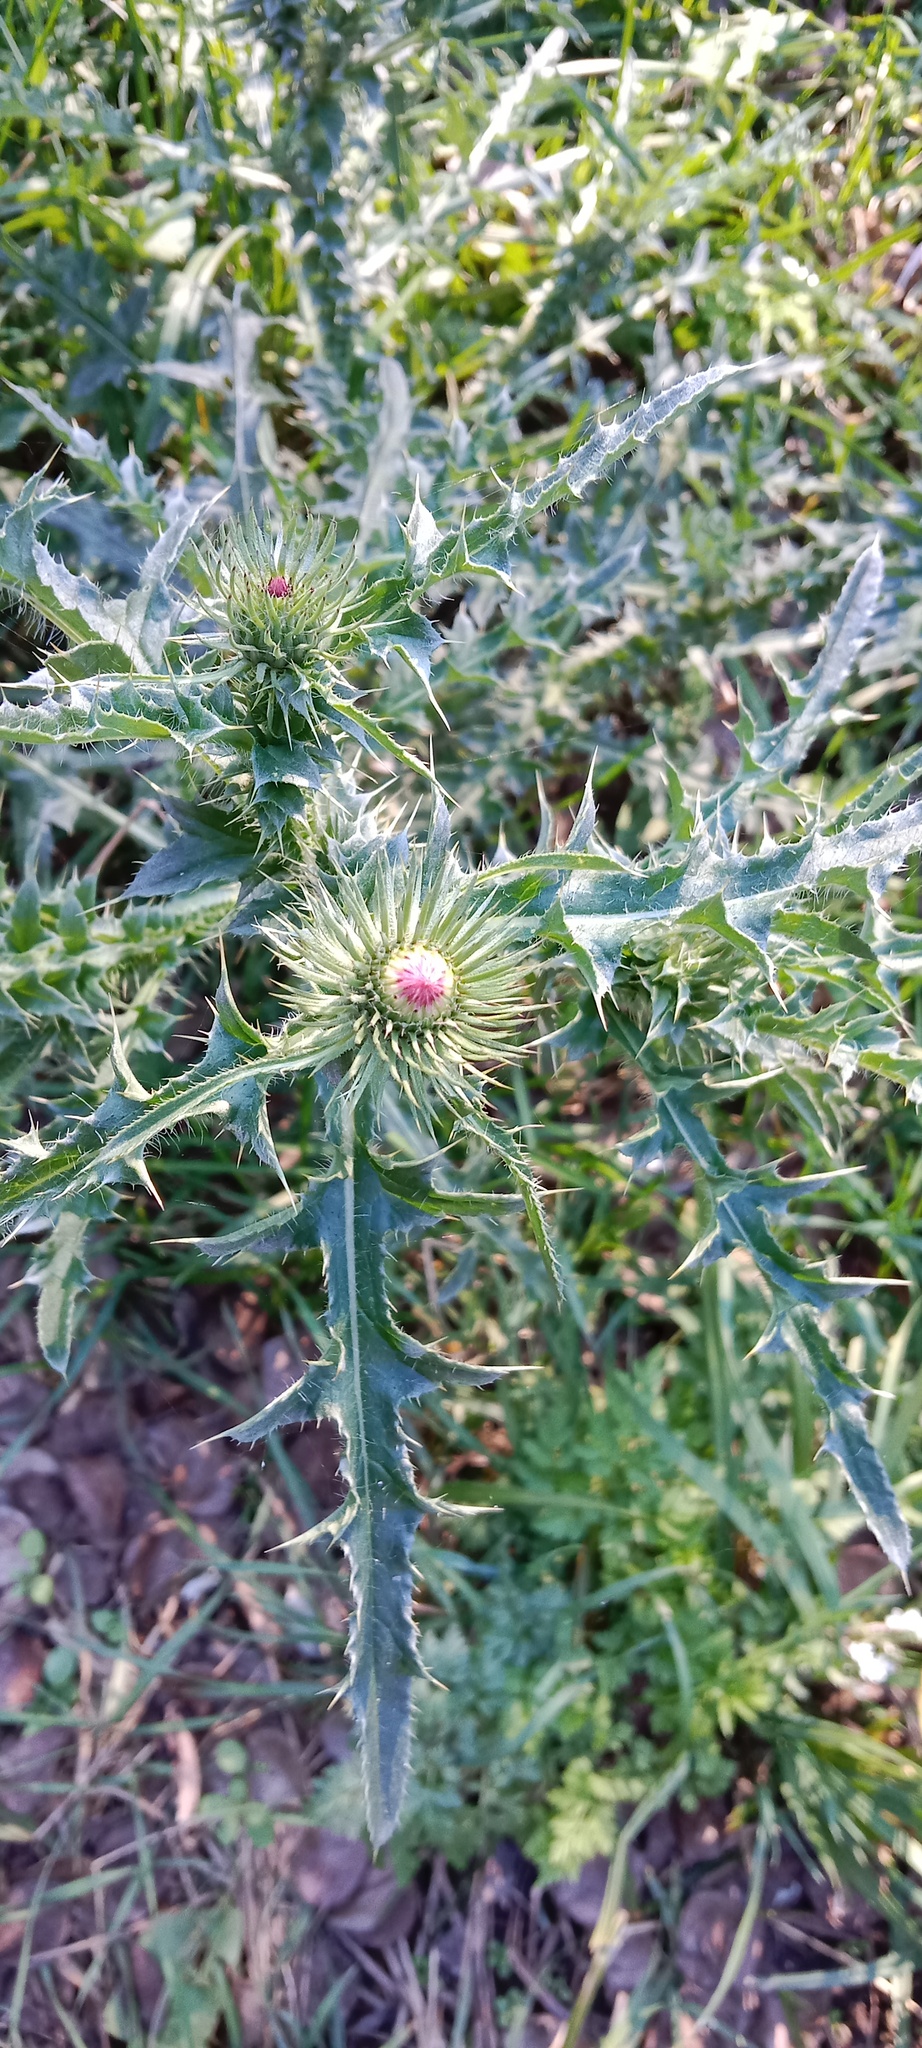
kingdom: Plantae
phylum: Tracheophyta
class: Magnoliopsida
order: Asterales
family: Asteraceae
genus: Carduus
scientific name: Carduus acanthoides
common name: Plumeless thistle
